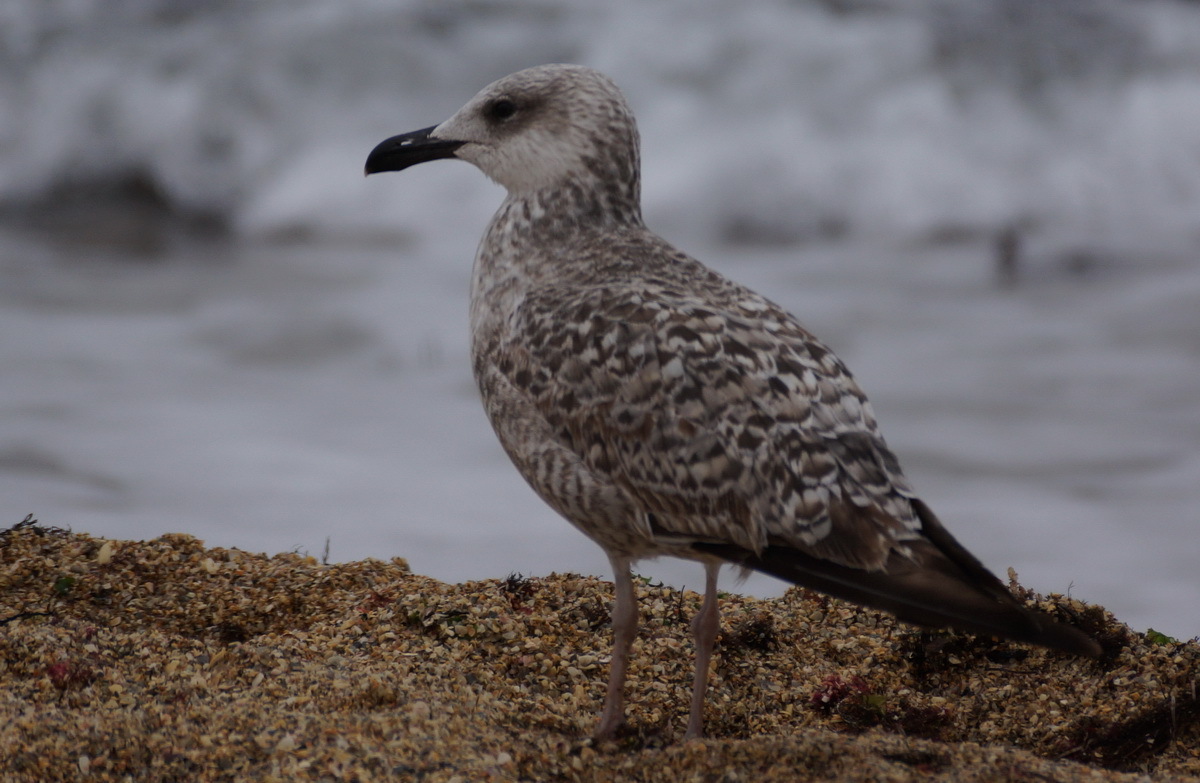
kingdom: Animalia
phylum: Chordata
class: Aves
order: Charadriiformes
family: Laridae
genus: Larus
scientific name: Larus michahellis
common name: Yellow-legged gull
